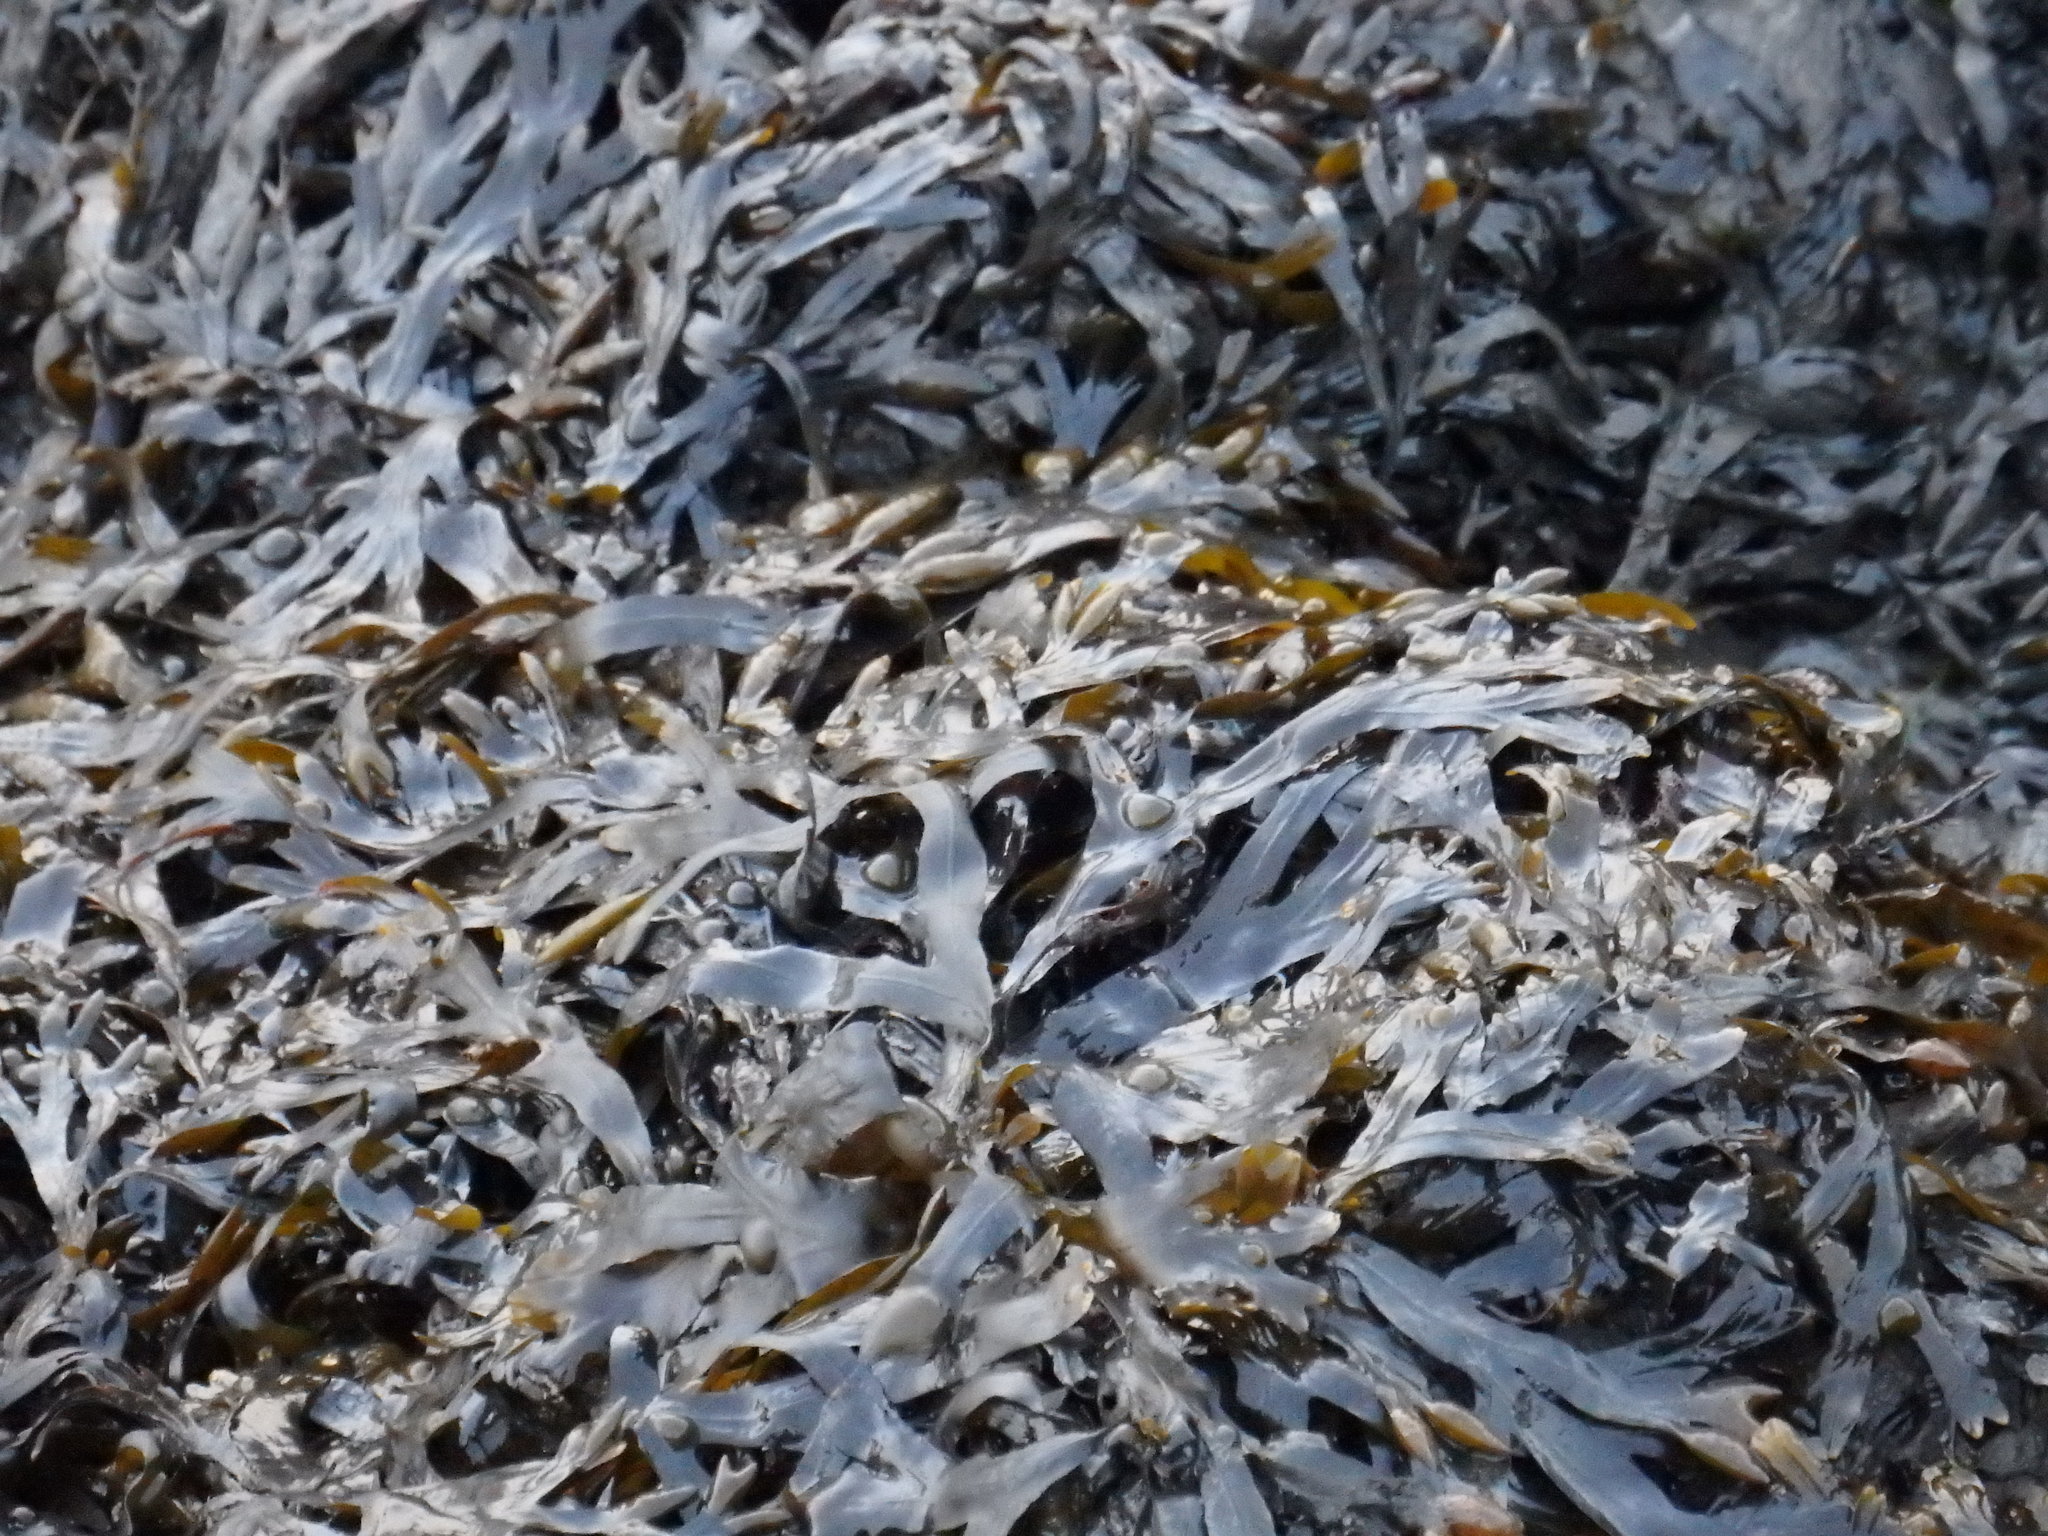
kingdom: Chromista
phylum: Ochrophyta
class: Phaeophyceae
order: Fucales
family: Fucaceae
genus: Fucus
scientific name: Fucus vesiculosus
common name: Bladder wrack
